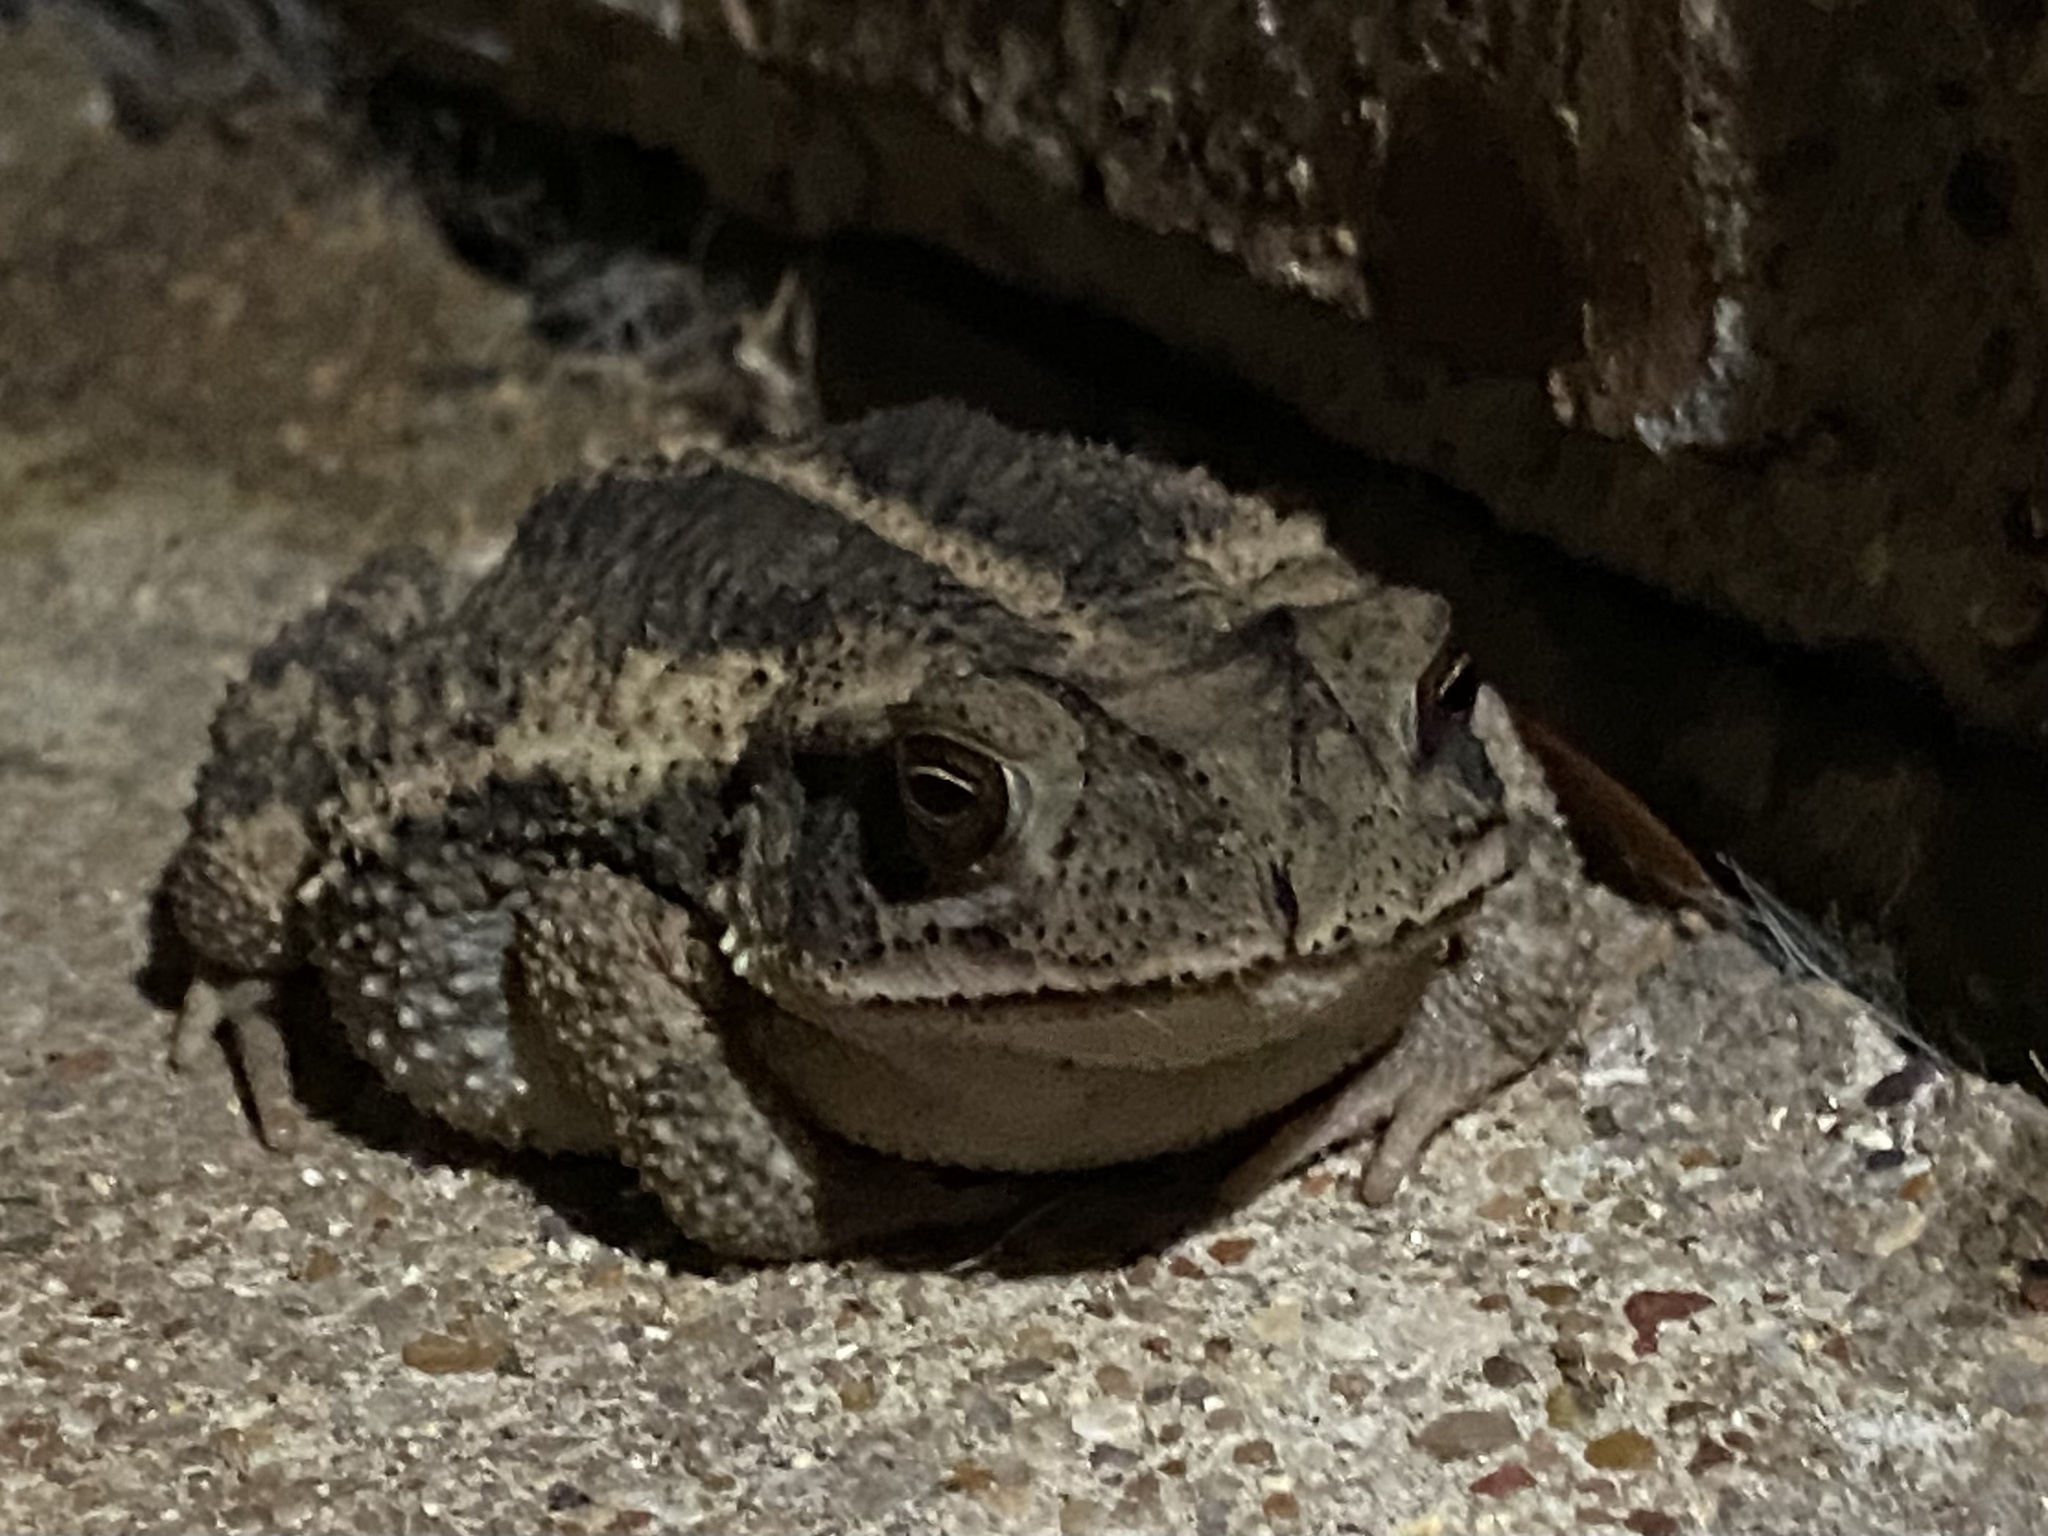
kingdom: Animalia
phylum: Chordata
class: Amphibia
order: Anura
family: Bufonidae
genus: Incilius
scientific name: Incilius nebulifer
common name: Gulf coast toad
